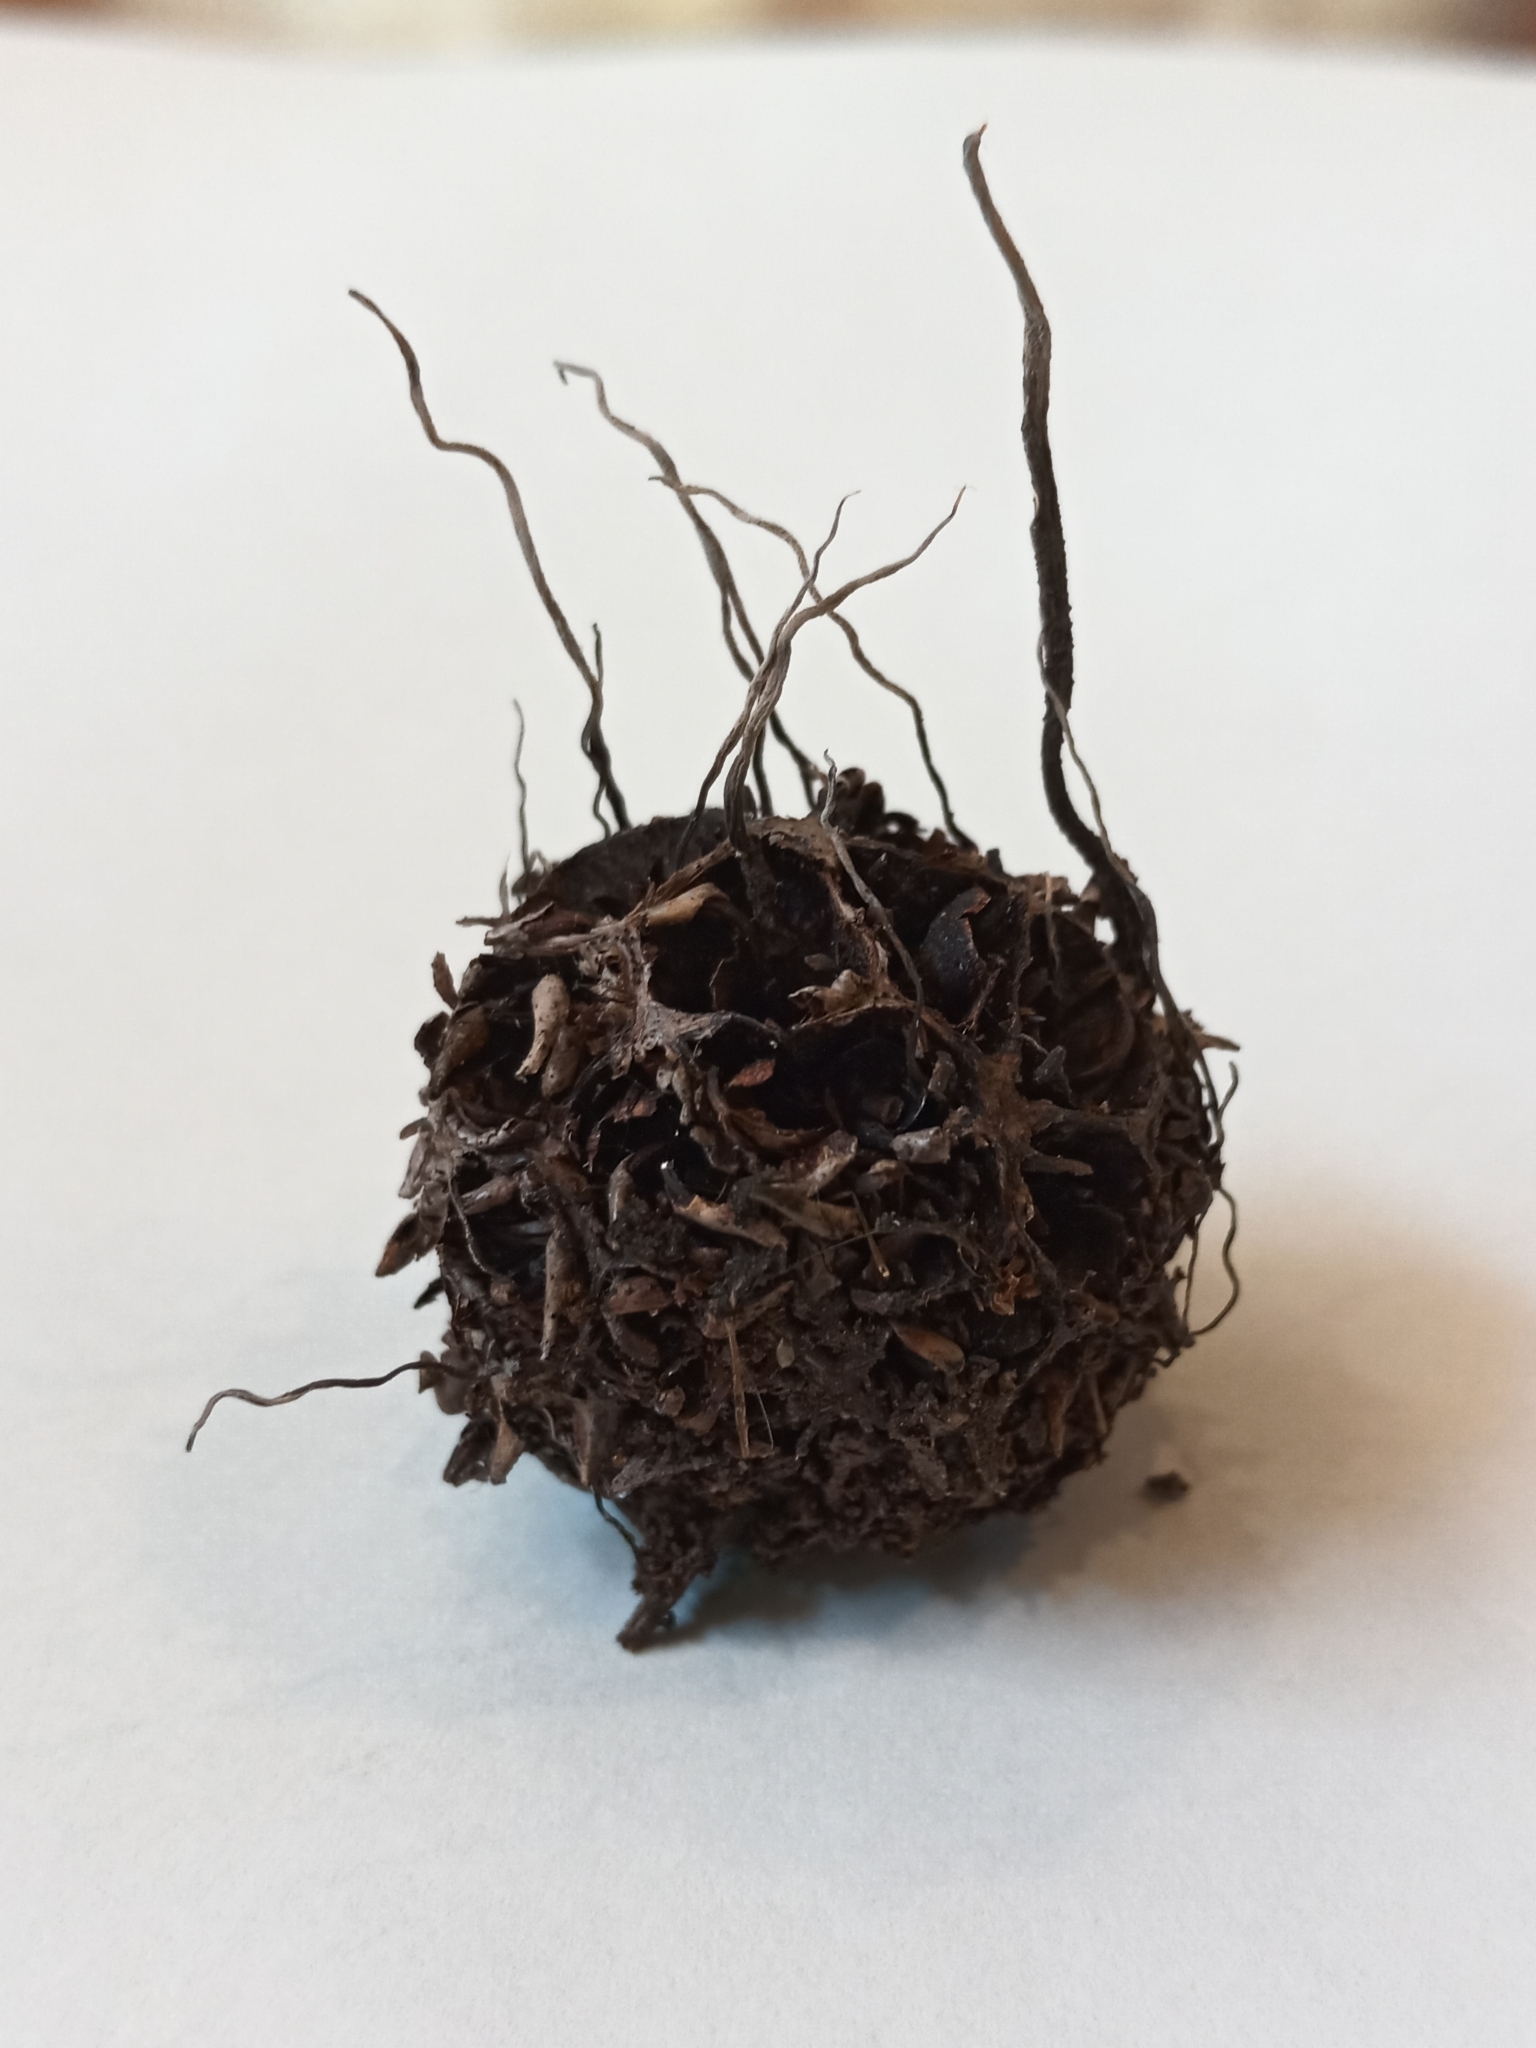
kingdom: Fungi
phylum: Ascomycota
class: Sordariomycetes
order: Xylariales
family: Xylariaceae
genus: Xylaria
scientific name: Xylaria liquidambaris
